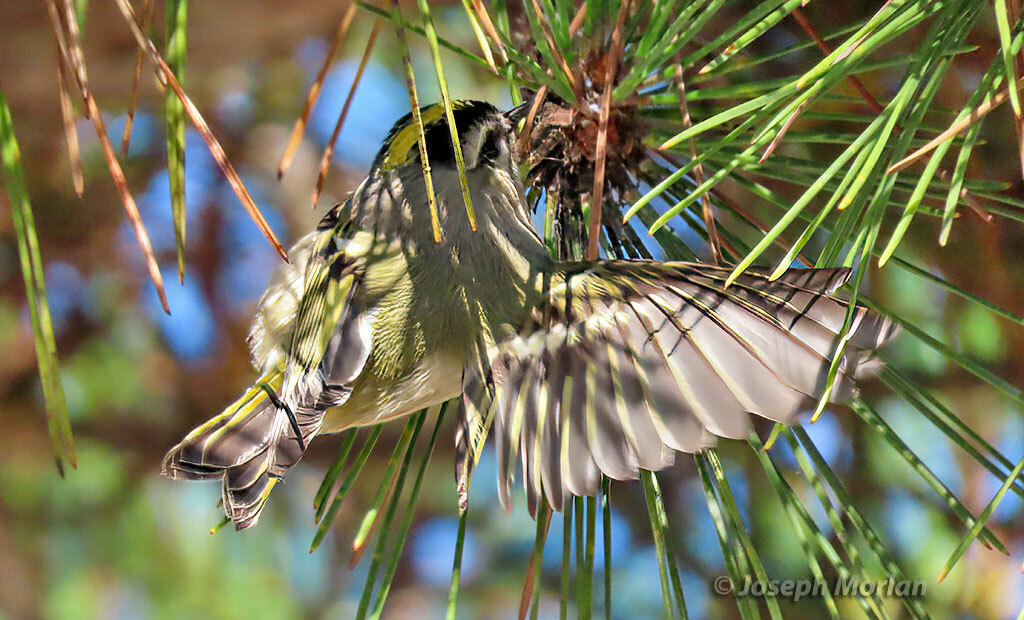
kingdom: Animalia
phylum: Chordata
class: Aves
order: Passeriformes
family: Regulidae
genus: Regulus
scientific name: Regulus satrapa
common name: Golden-crowned kinglet
